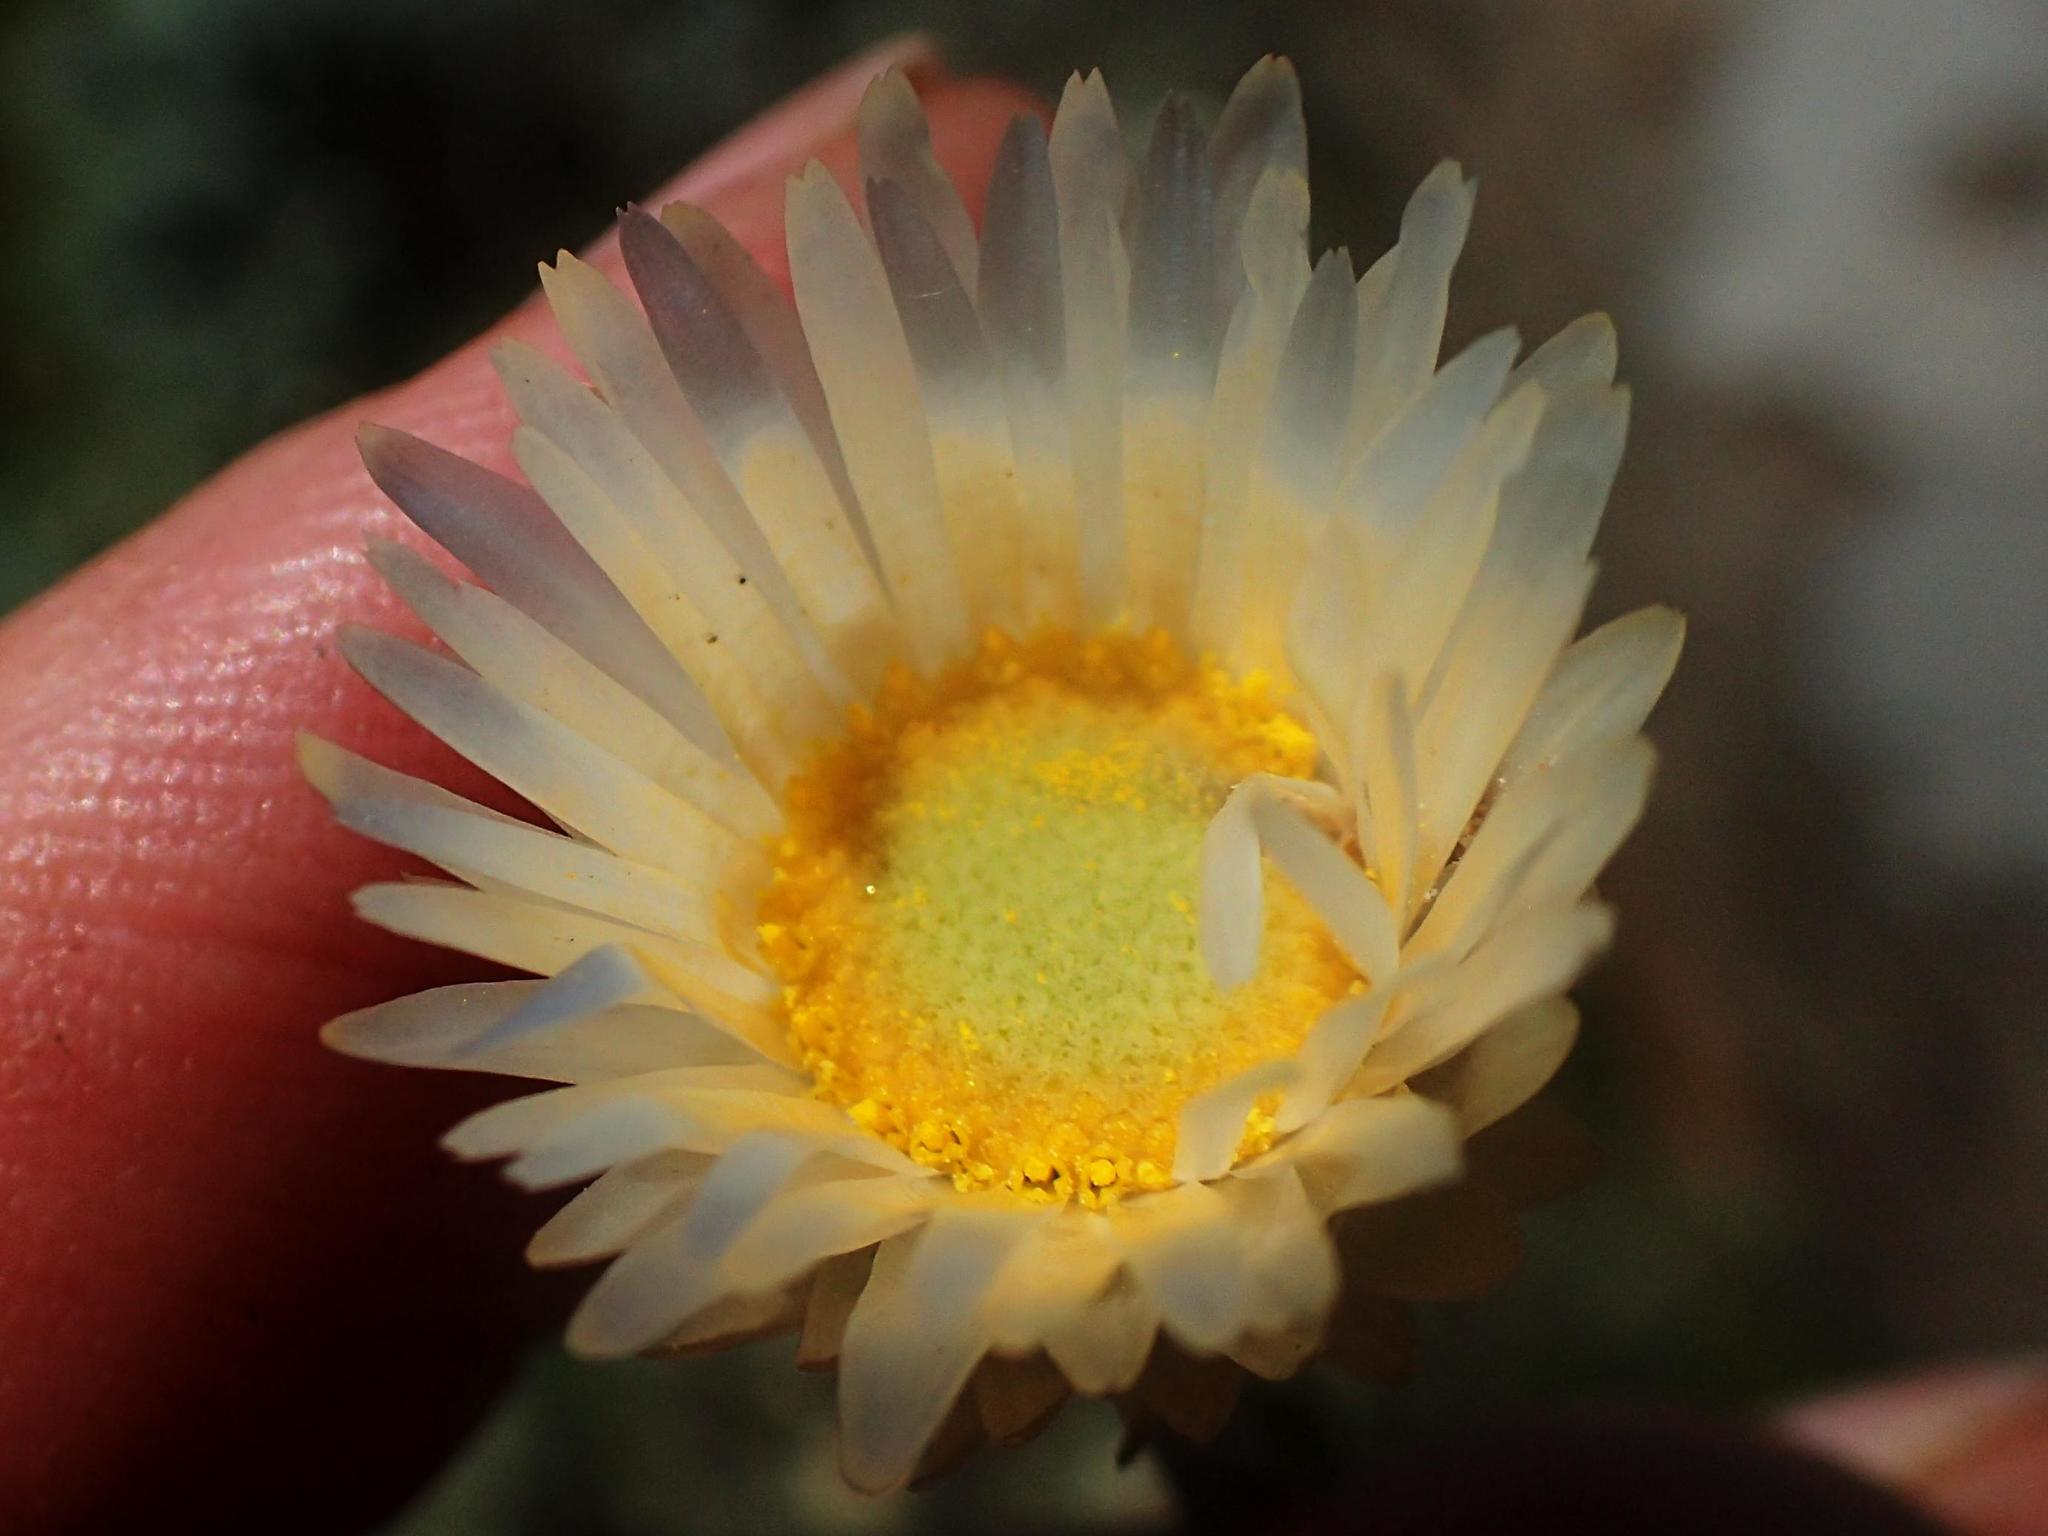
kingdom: Plantae
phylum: Tracheophyta
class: Magnoliopsida
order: Asterales
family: Asteraceae
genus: Helichrysum
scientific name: Helichrysum confertifolium
